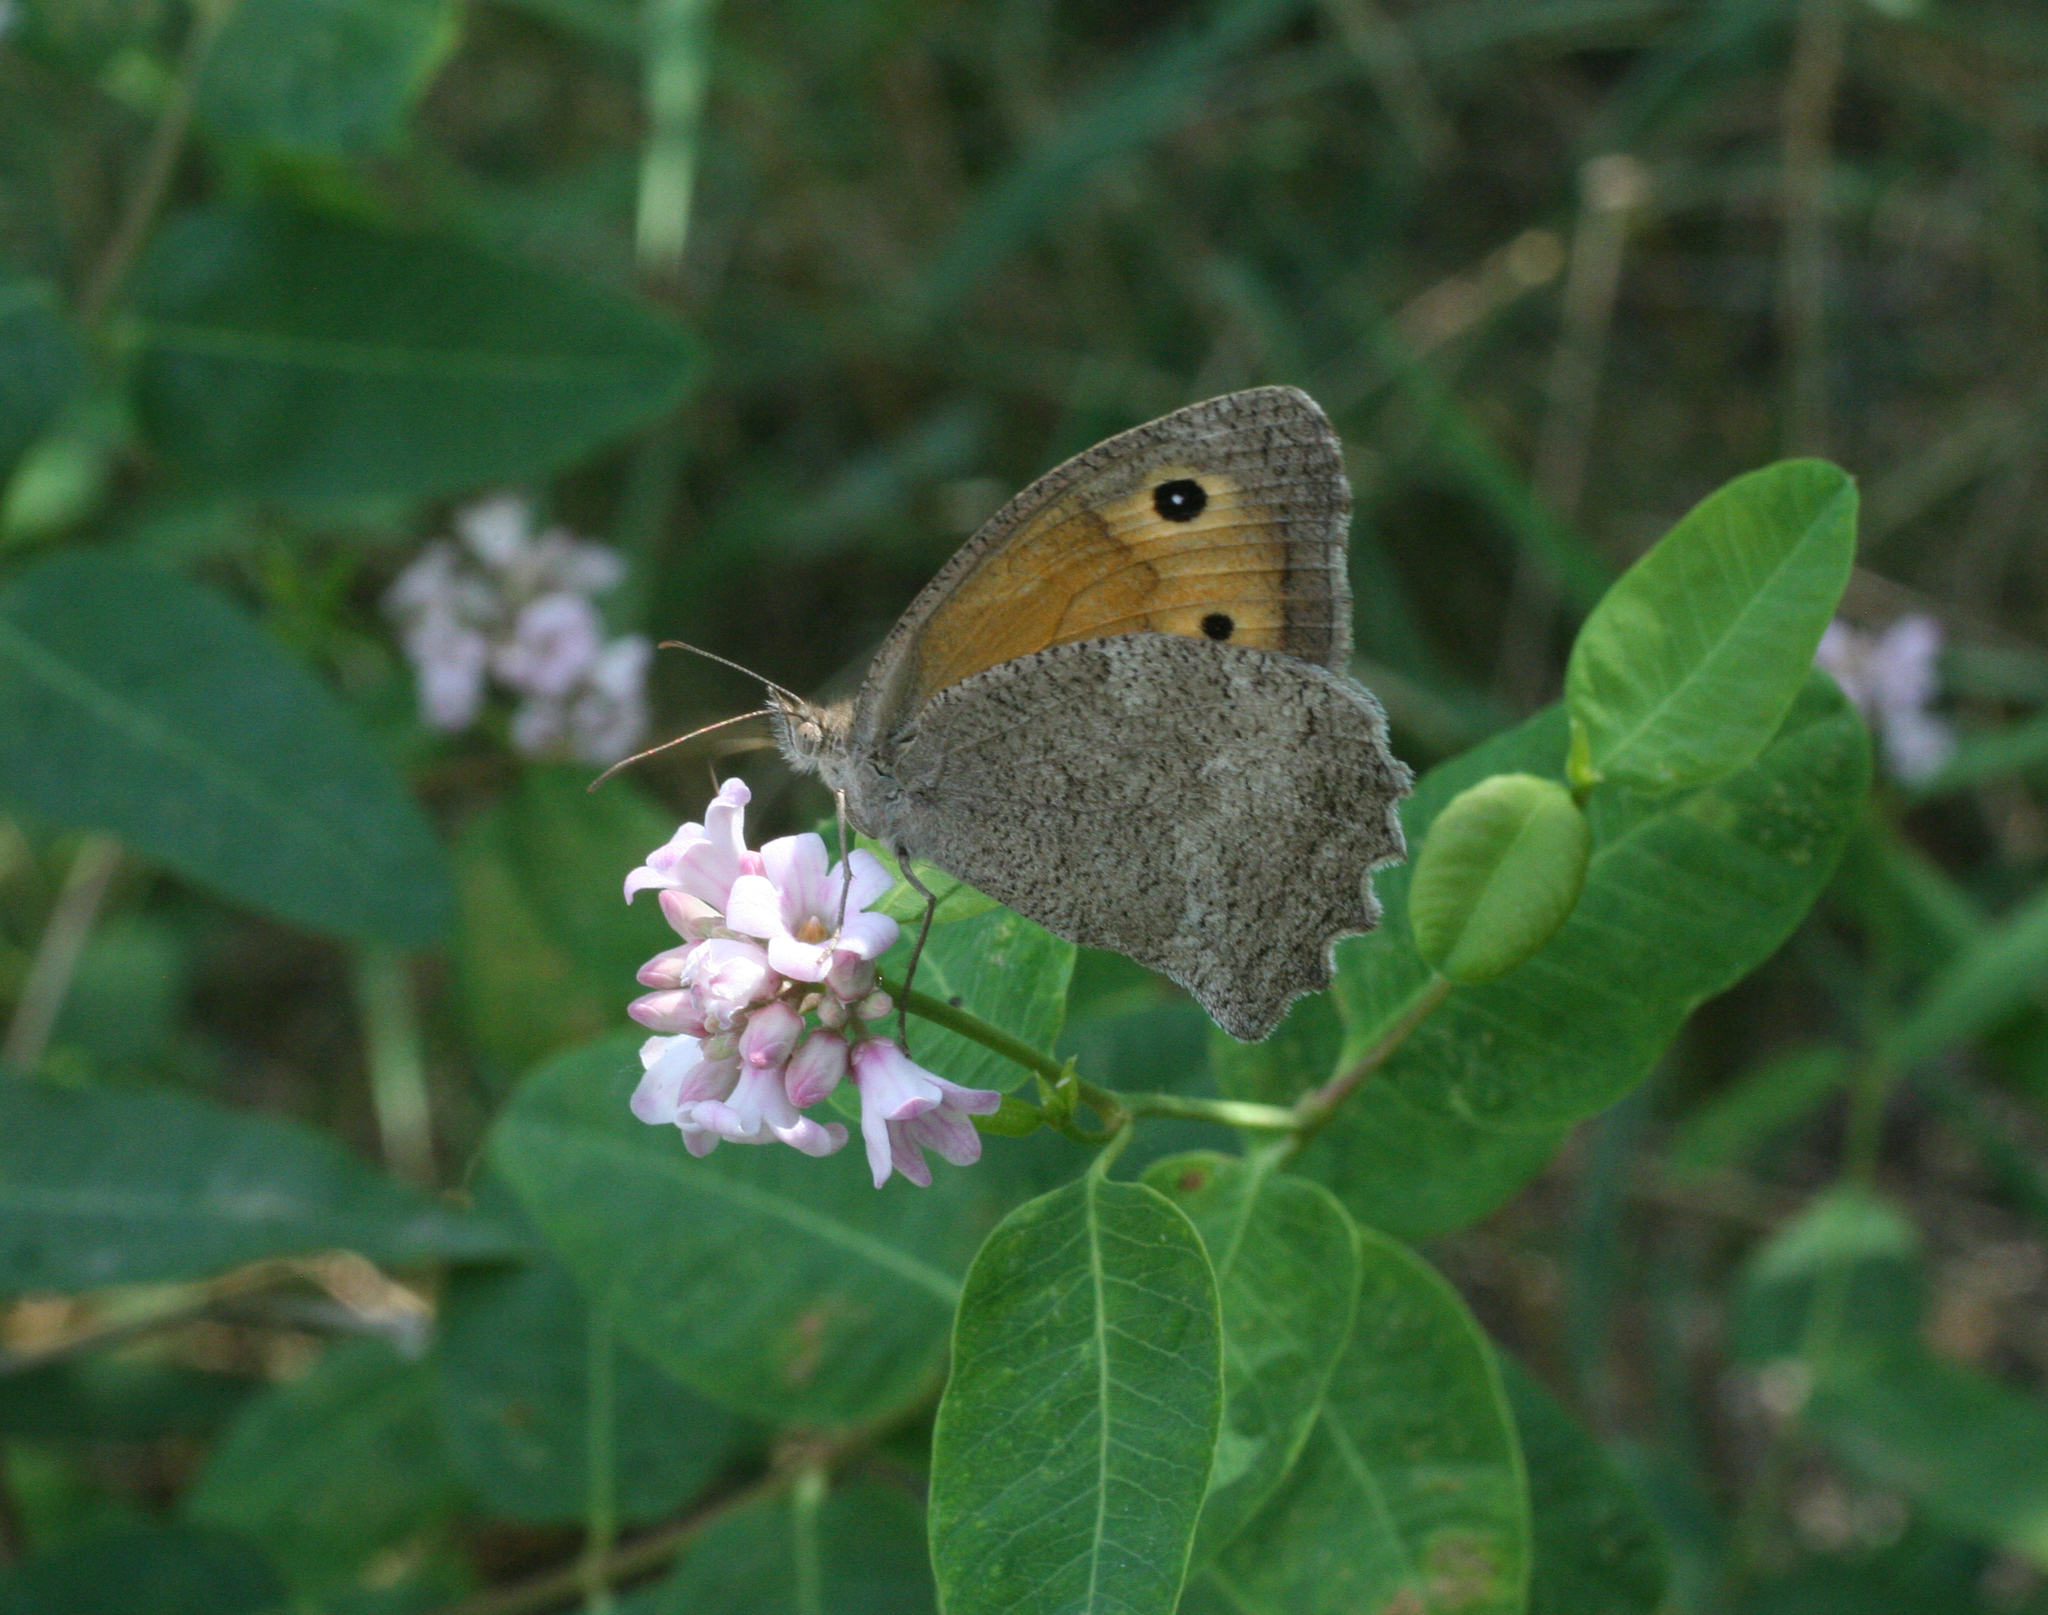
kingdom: Animalia
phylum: Arthropoda
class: Insecta
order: Lepidoptera
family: Nymphalidae
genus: Hyponephele
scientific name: Hyponephele lupinus
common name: Oriental meadow brown
